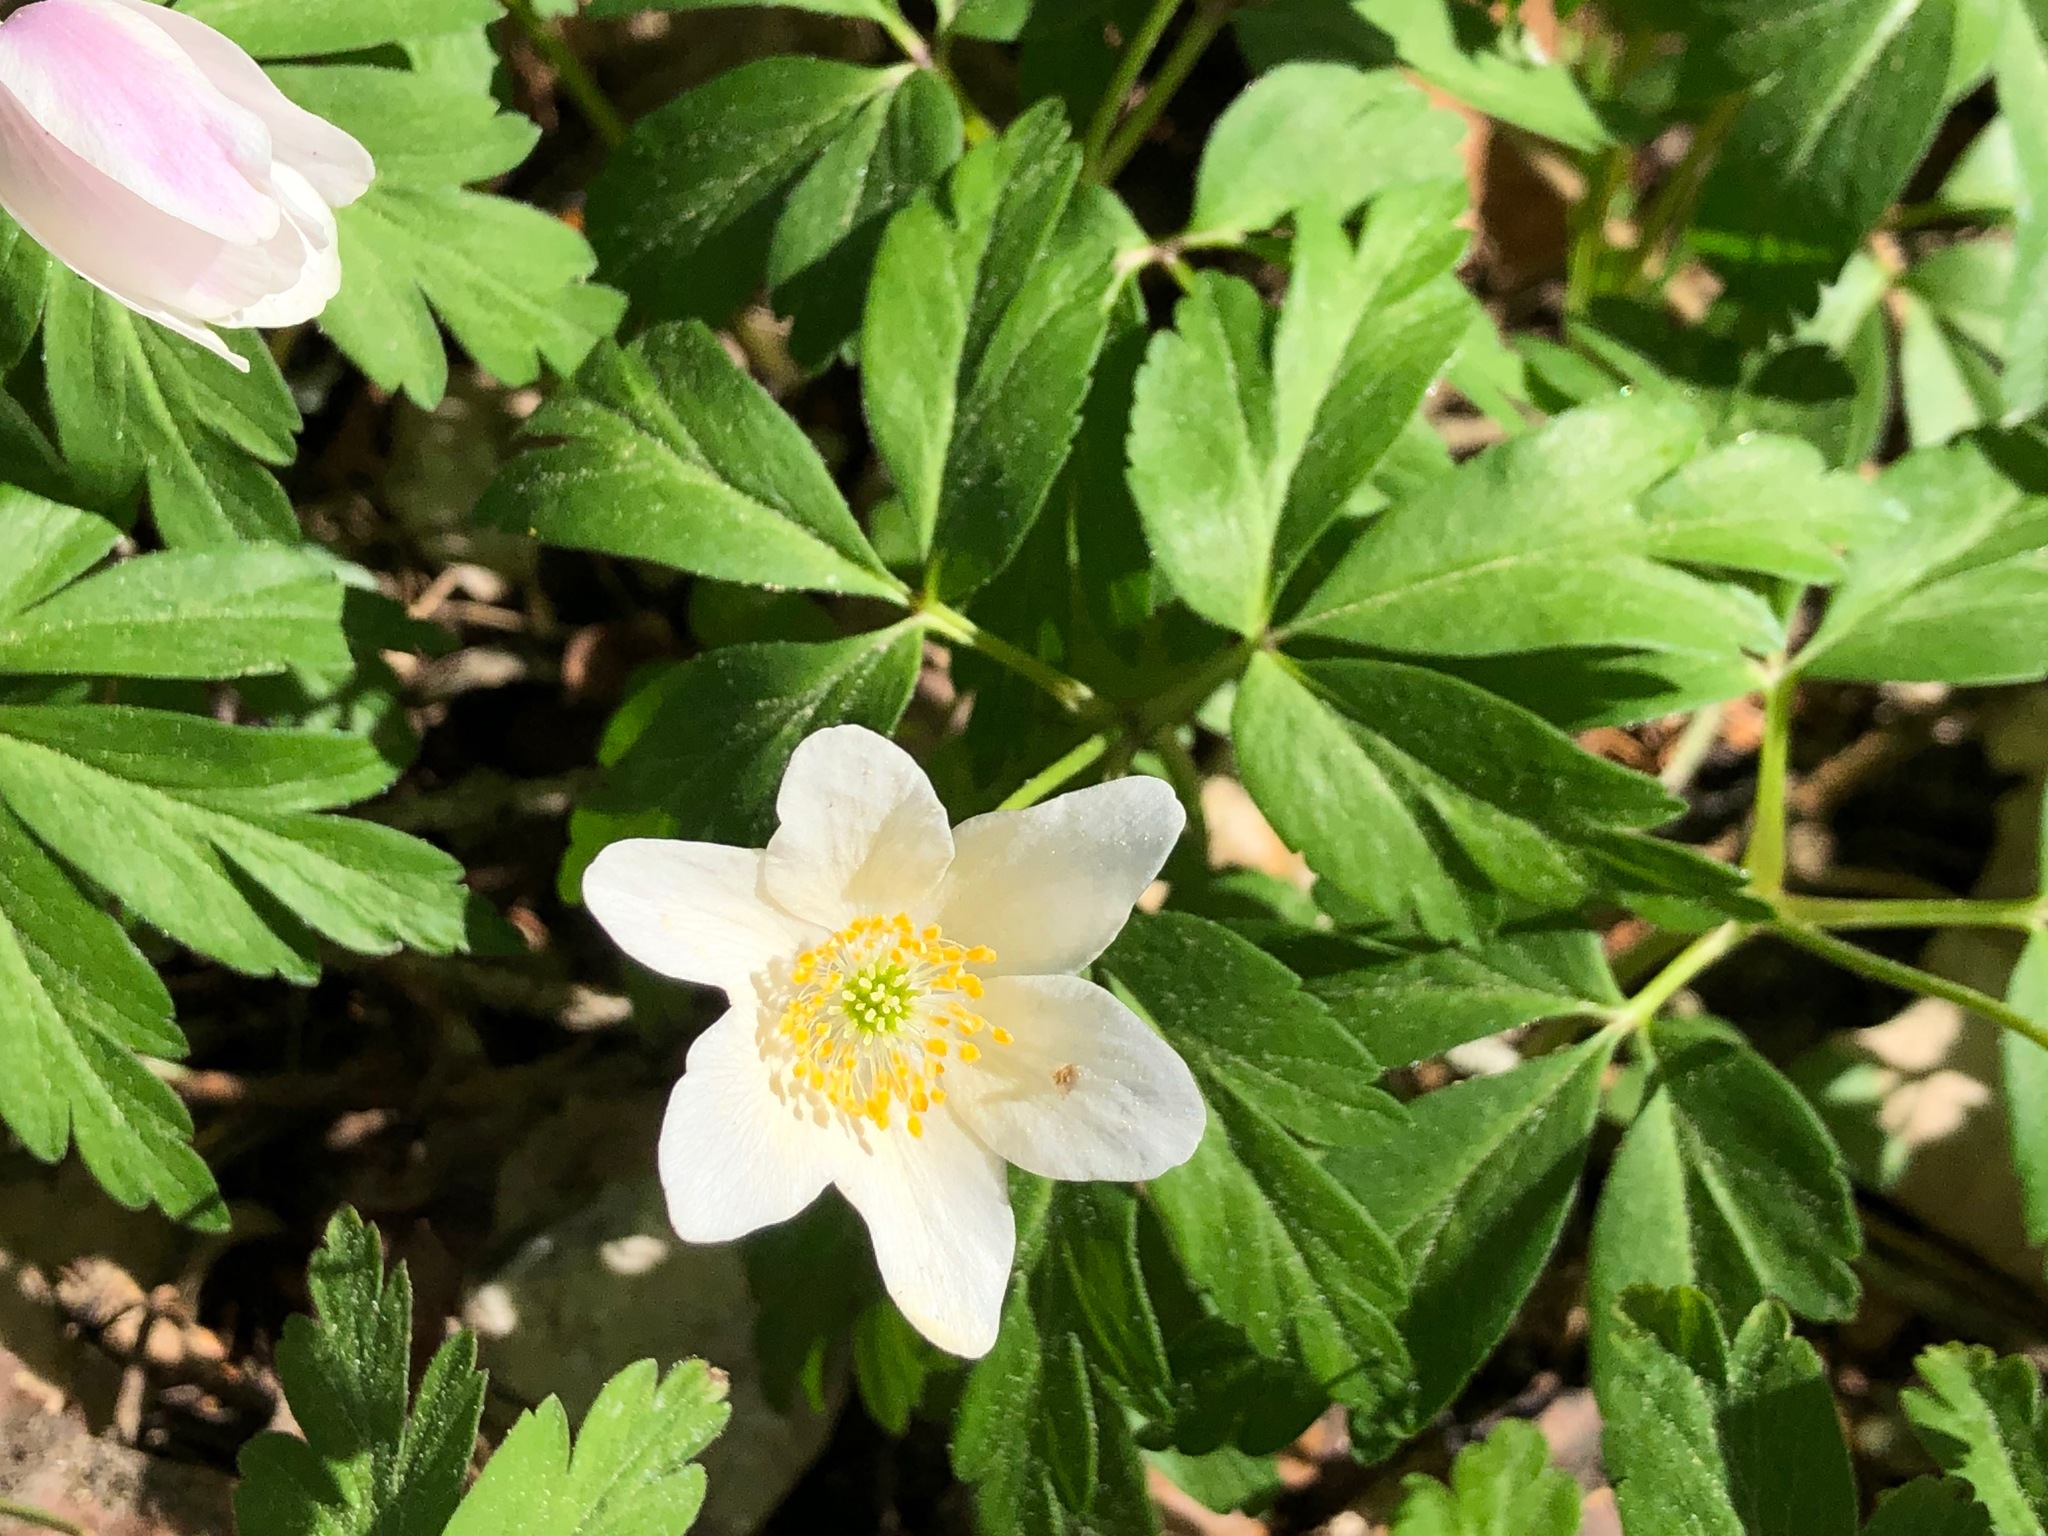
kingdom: Plantae
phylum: Tracheophyta
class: Magnoliopsida
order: Ranunculales
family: Ranunculaceae
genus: Anemone
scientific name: Anemone nemorosa
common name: Wood anemone
